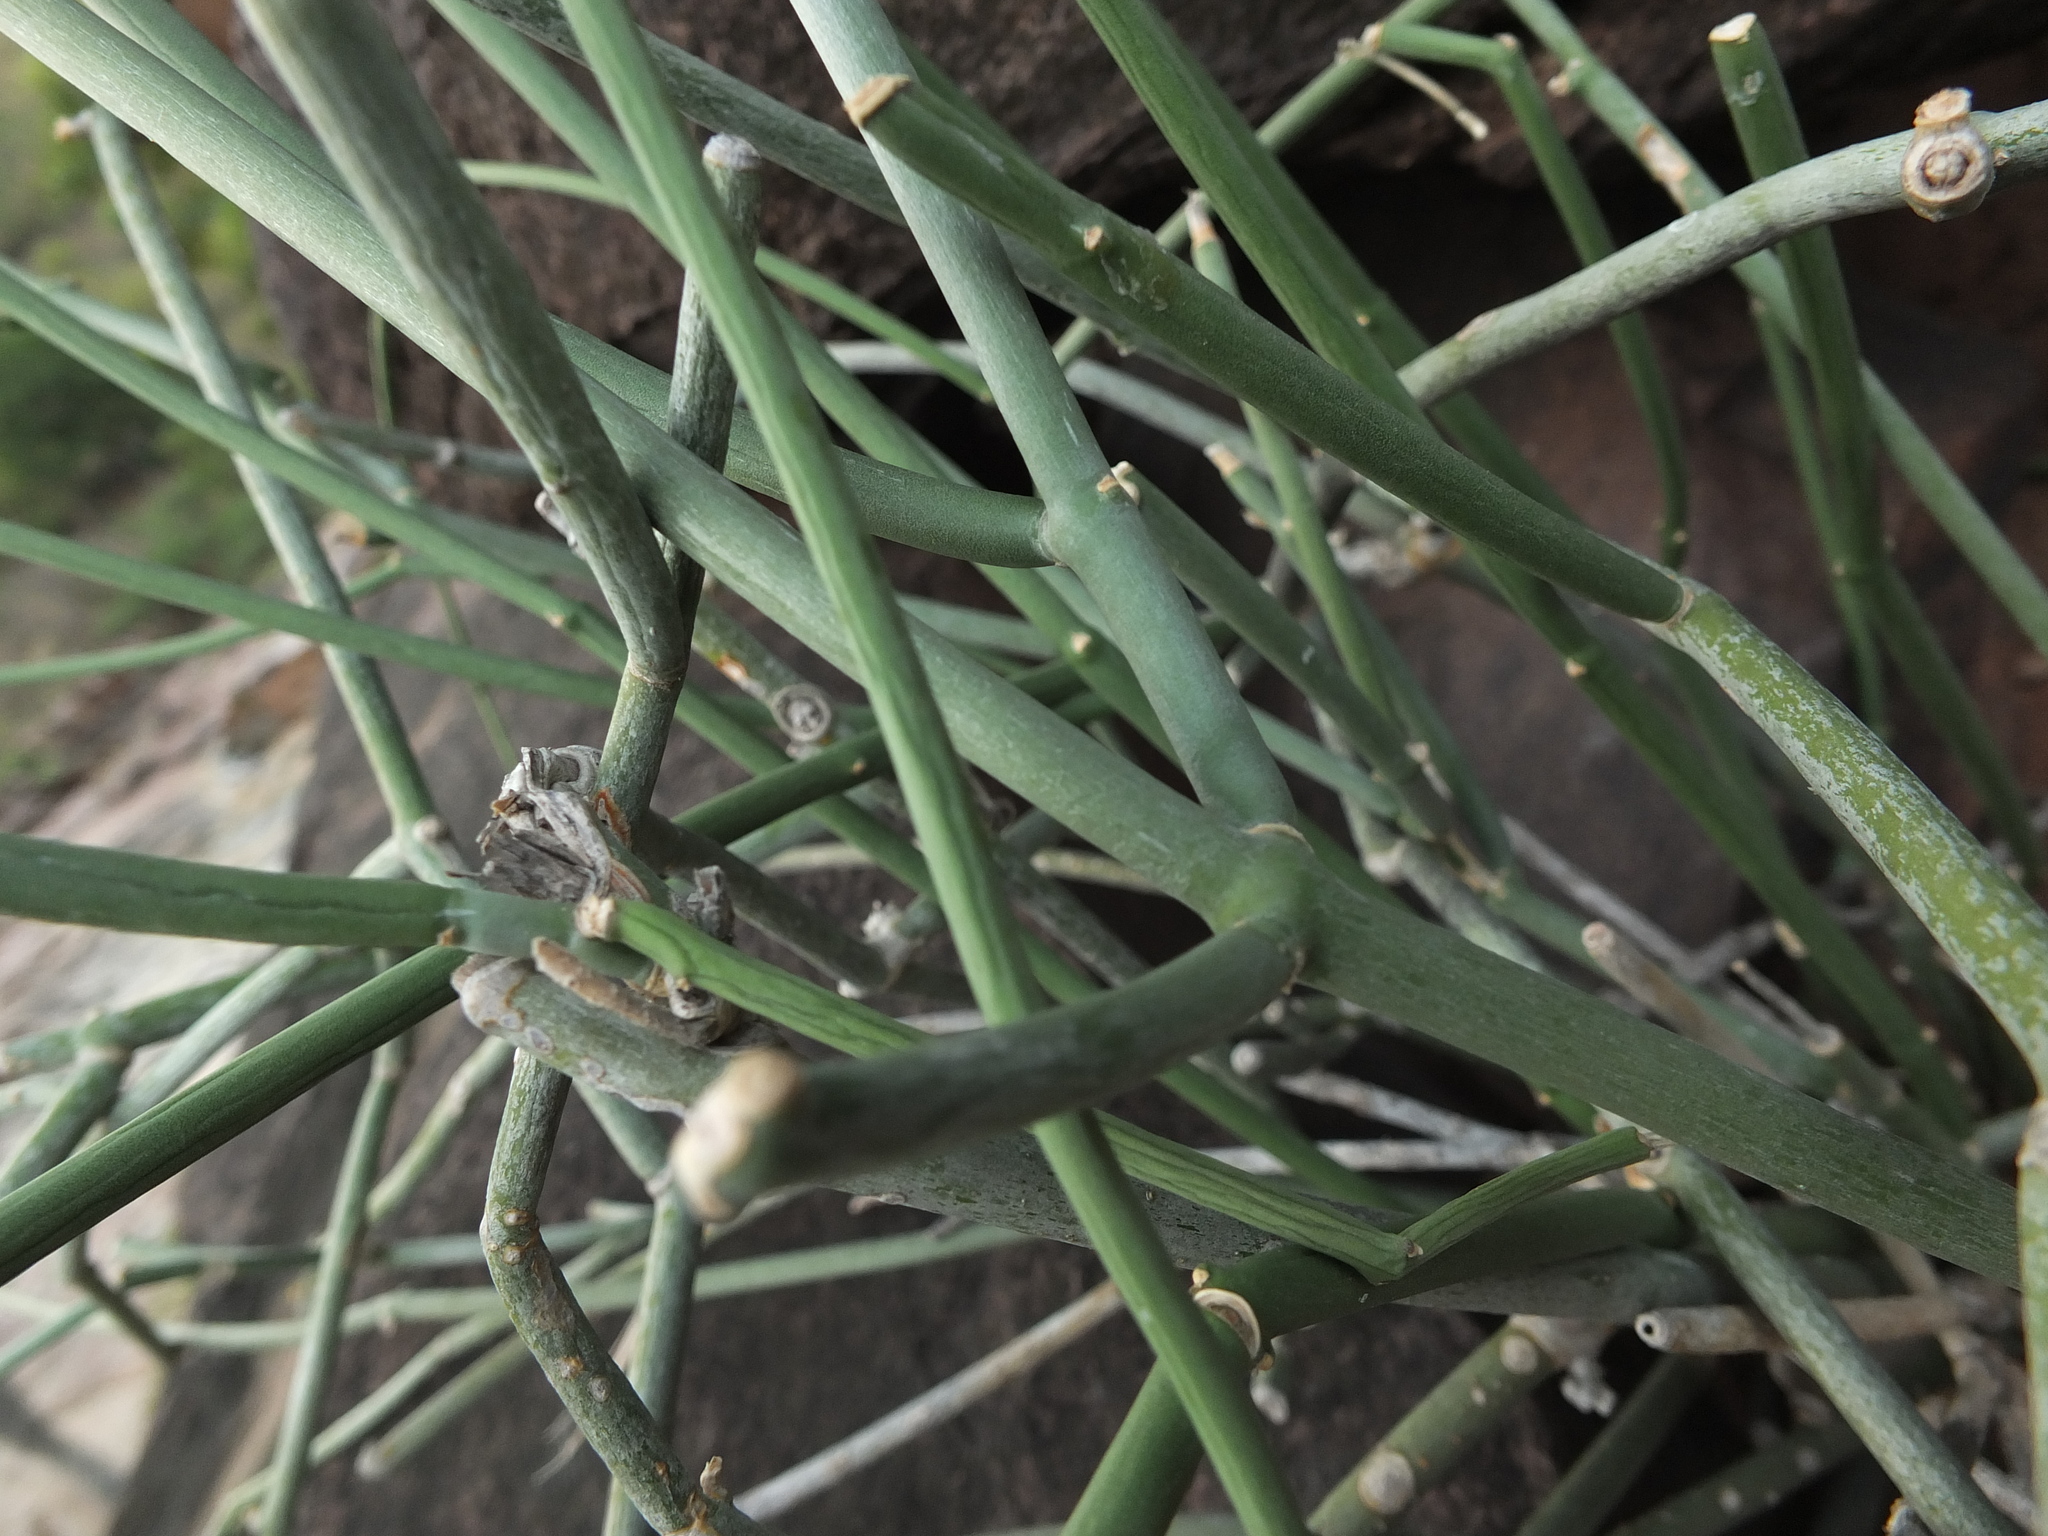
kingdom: Plantae
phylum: Tracheophyta
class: Magnoliopsida
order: Gentianales
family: Apocynaceae
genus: Cynanchum
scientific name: Cynanchum acidum
